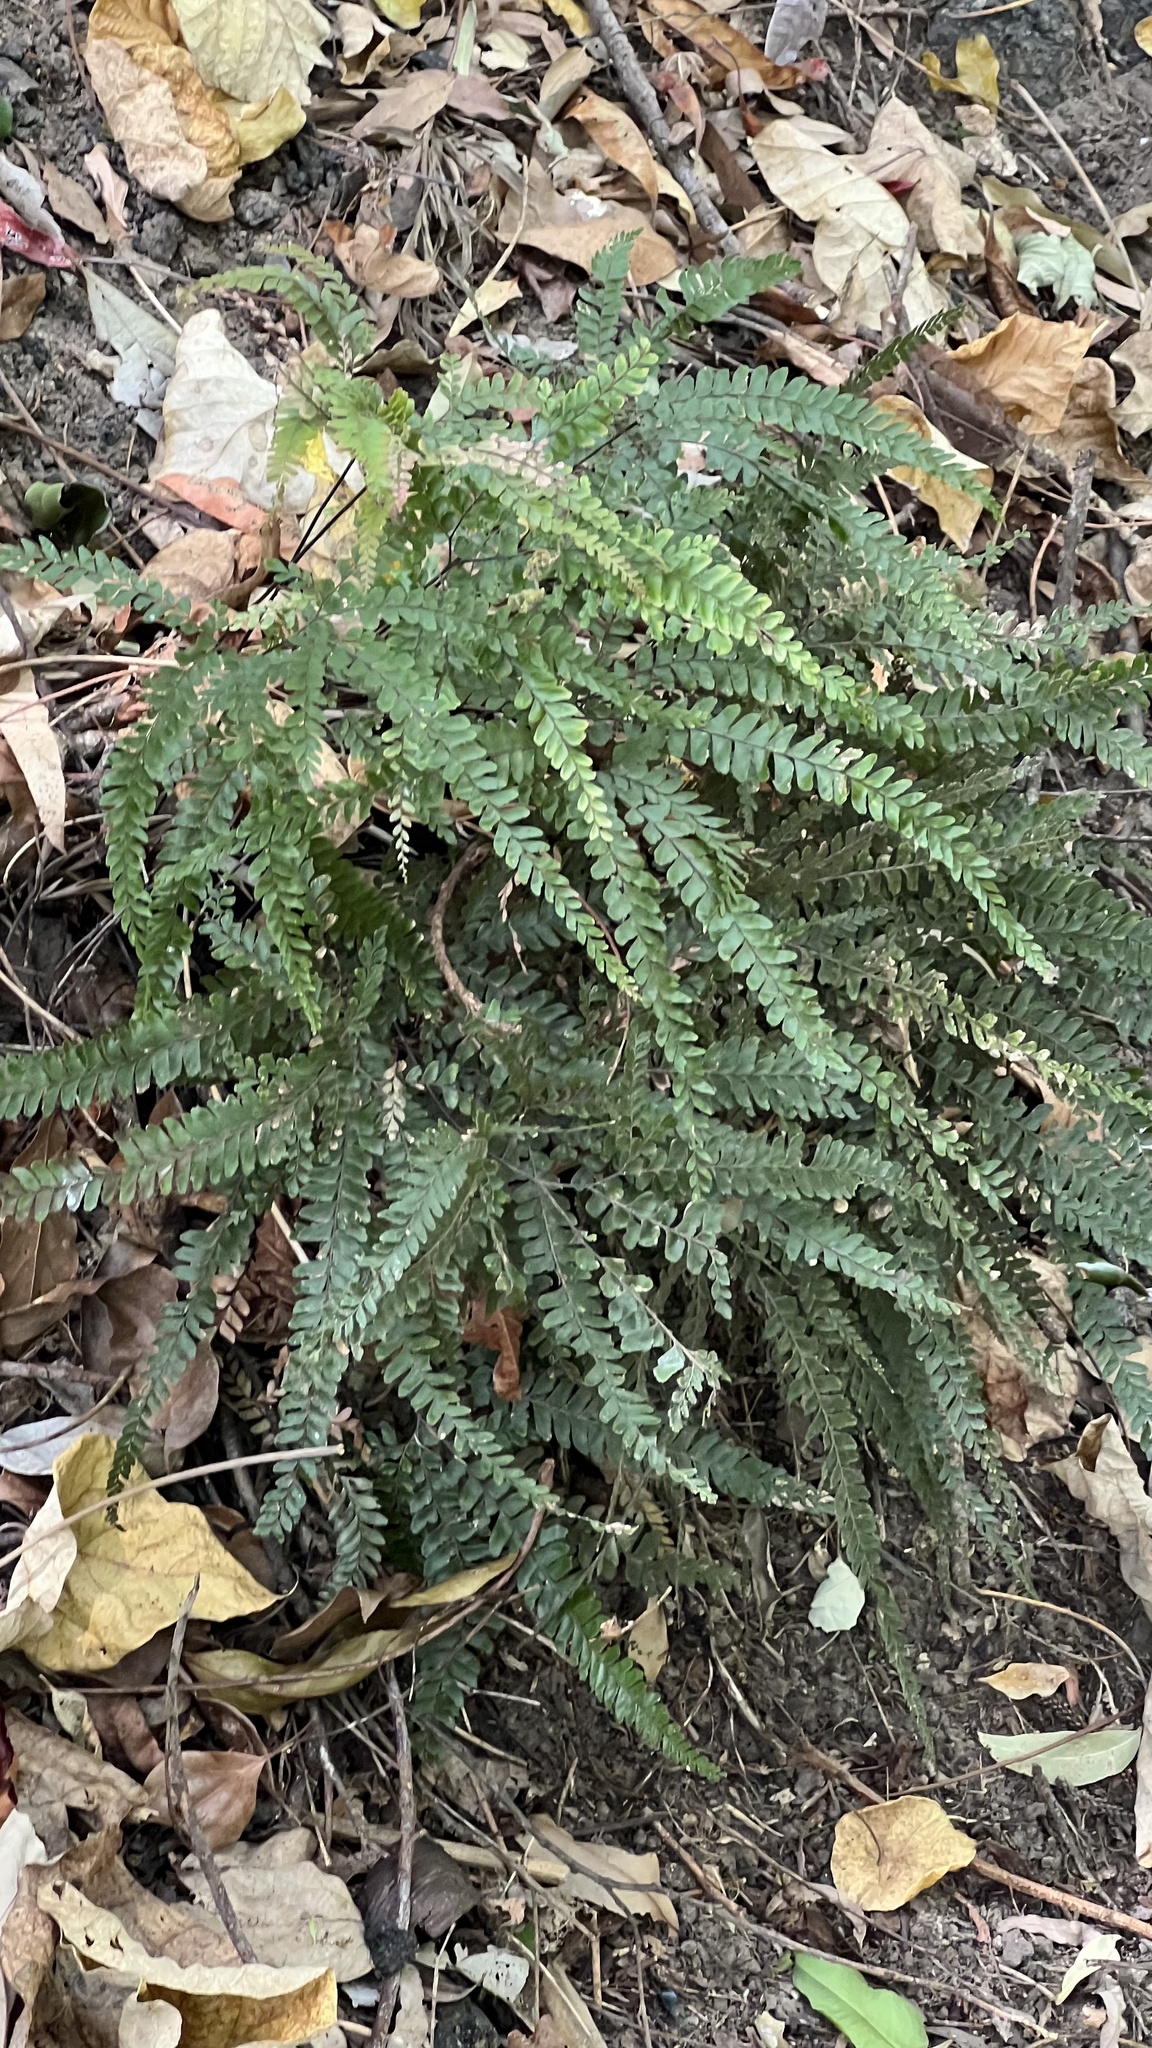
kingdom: Plantae
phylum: Tracheophyta
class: Polypodiopsida
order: Polypodiales
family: Pteridaceae
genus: Adiantum
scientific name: Adiantum hispidulum
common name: Rough maidenhair
